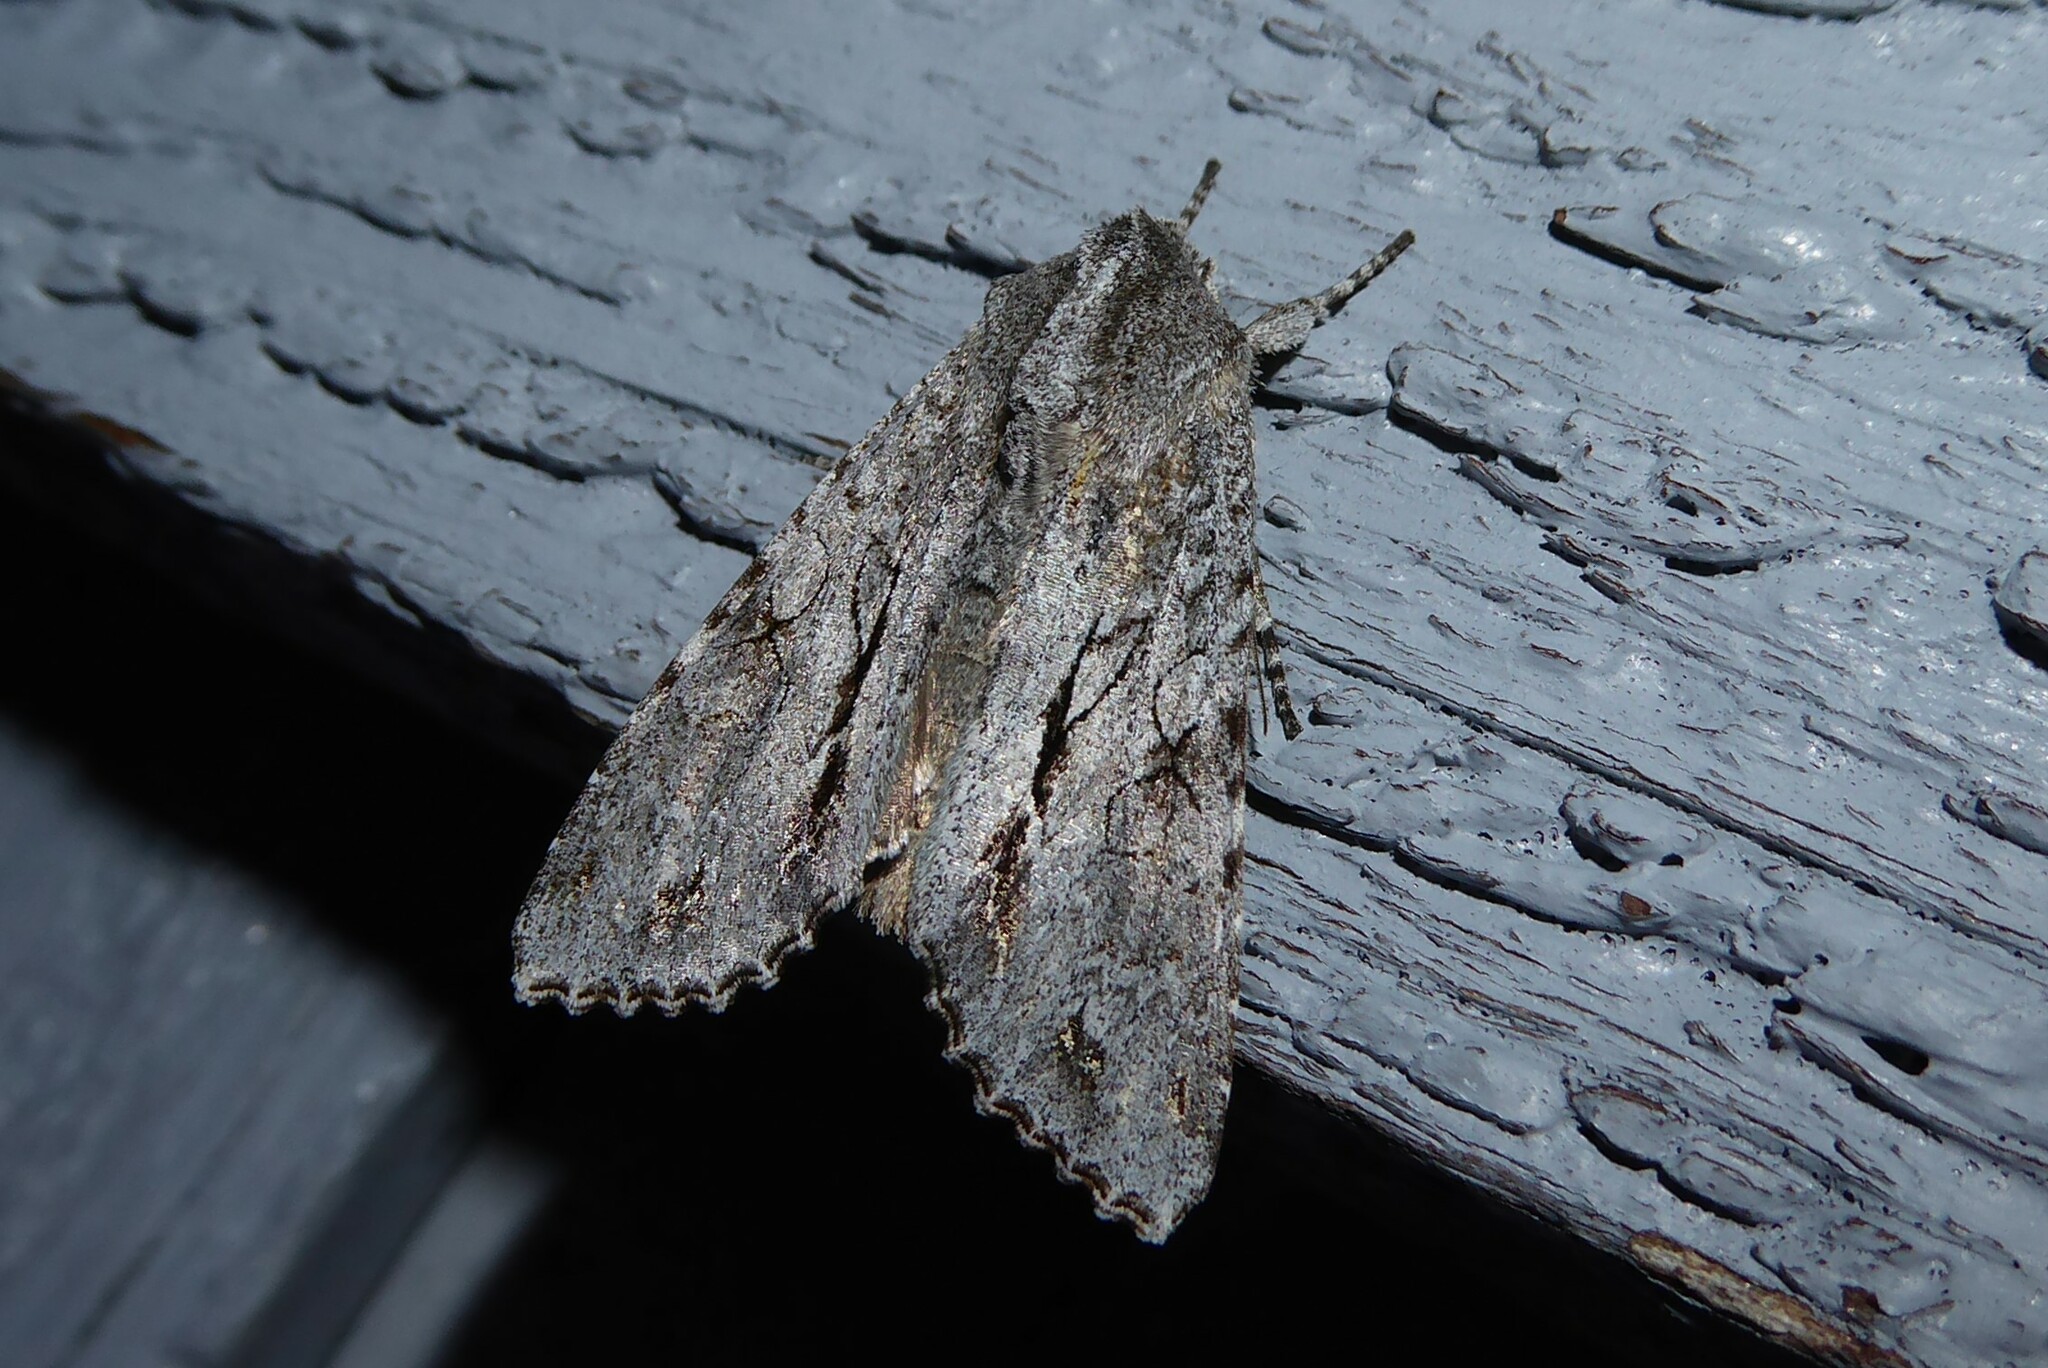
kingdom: Animalia
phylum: Arthropoda
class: Insecta
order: Lepidoptera
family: Noctuidae
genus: Ichneutica
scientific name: Ichneutica
